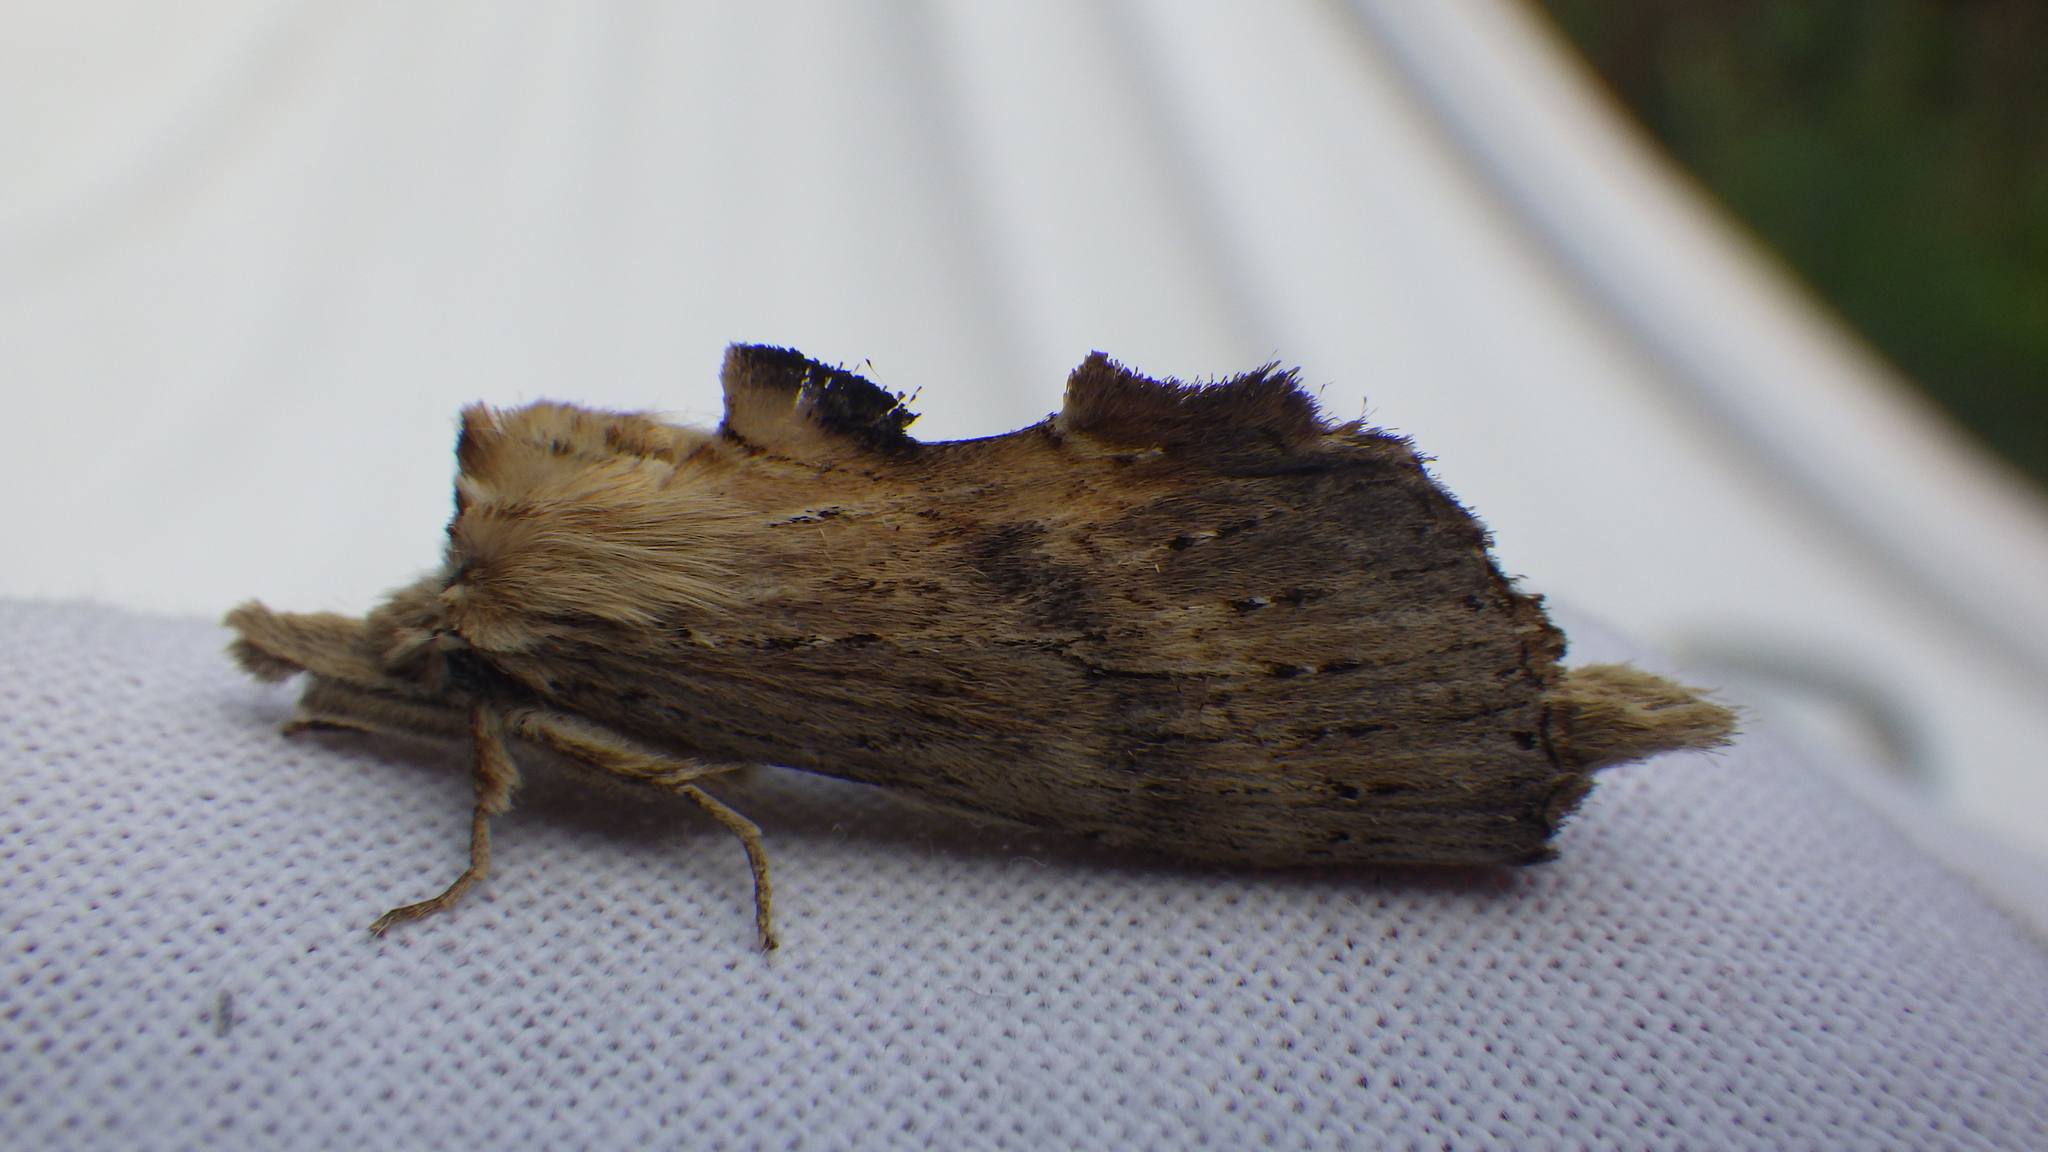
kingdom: Animalia
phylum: Arthropoda
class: Insecta
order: Lepidoptera
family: Notodontidae
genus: Pterostoma
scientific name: Pterostoma palpina
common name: Pale prominent
